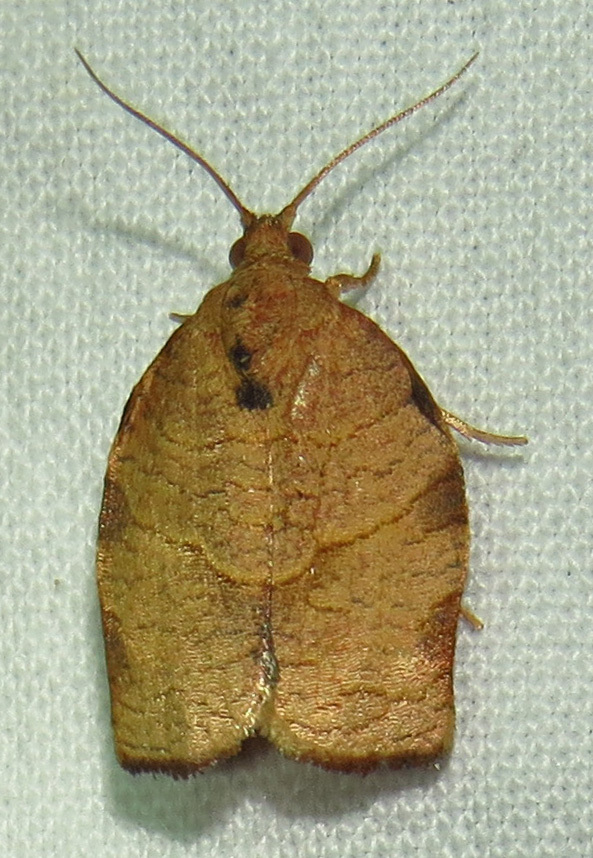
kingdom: Animalia
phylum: Arthropoda
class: Insecta
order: Lepidoptera
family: Tortricidae
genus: Choristoneura
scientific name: Choristoneura rosaceana
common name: Oblique-banded leafroller moth
